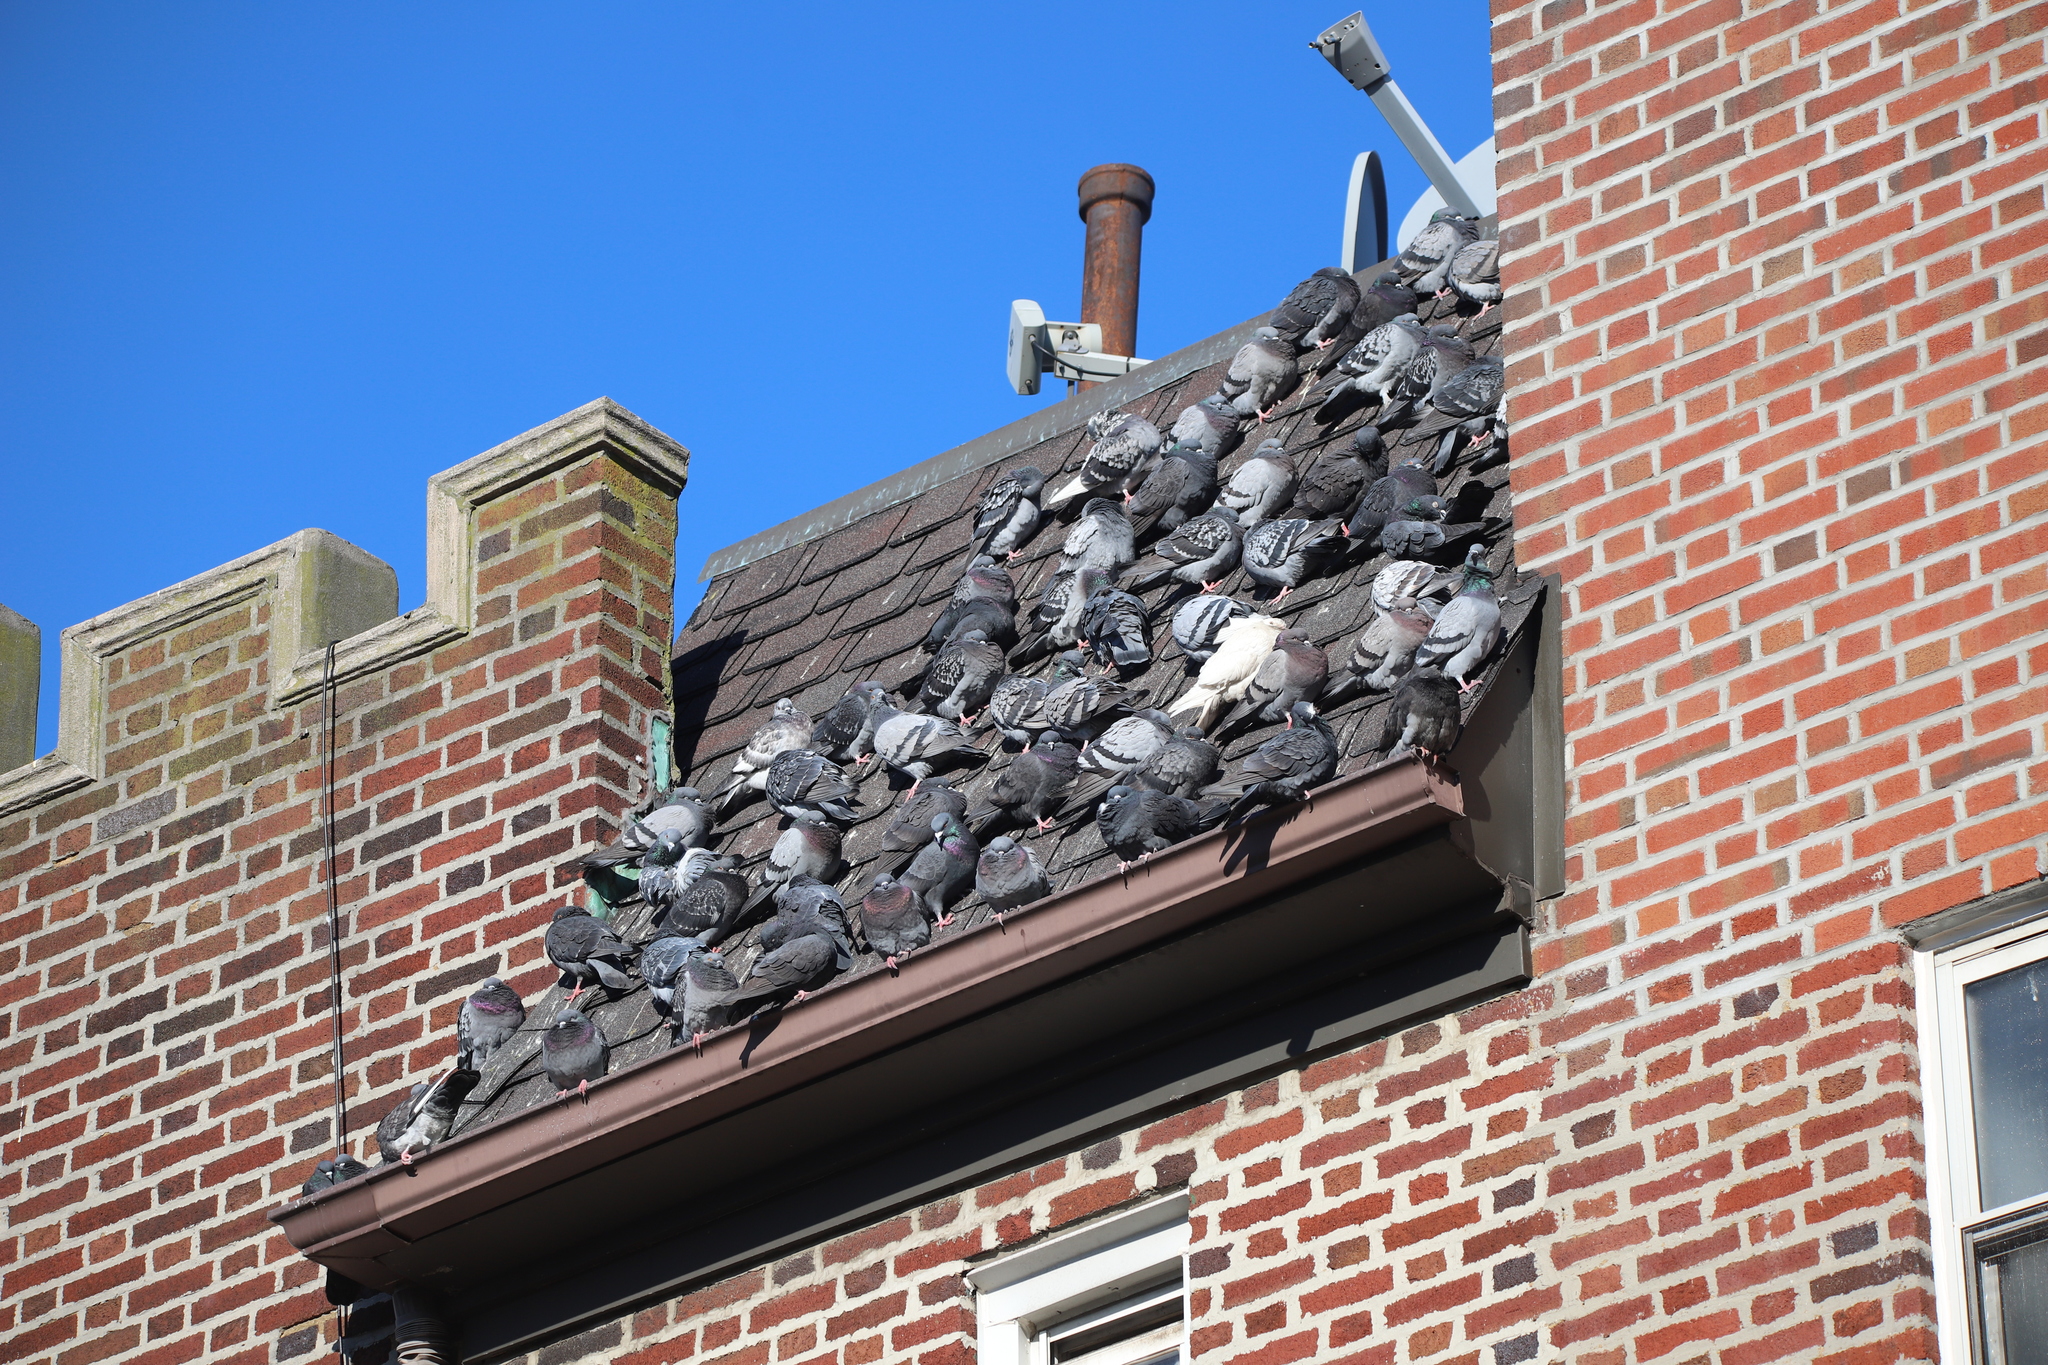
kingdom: Animalia
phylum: Chordata
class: Aves
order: Columbiformes
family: Columbidae
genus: Columba
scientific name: Columba livia
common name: Rock pigeon
